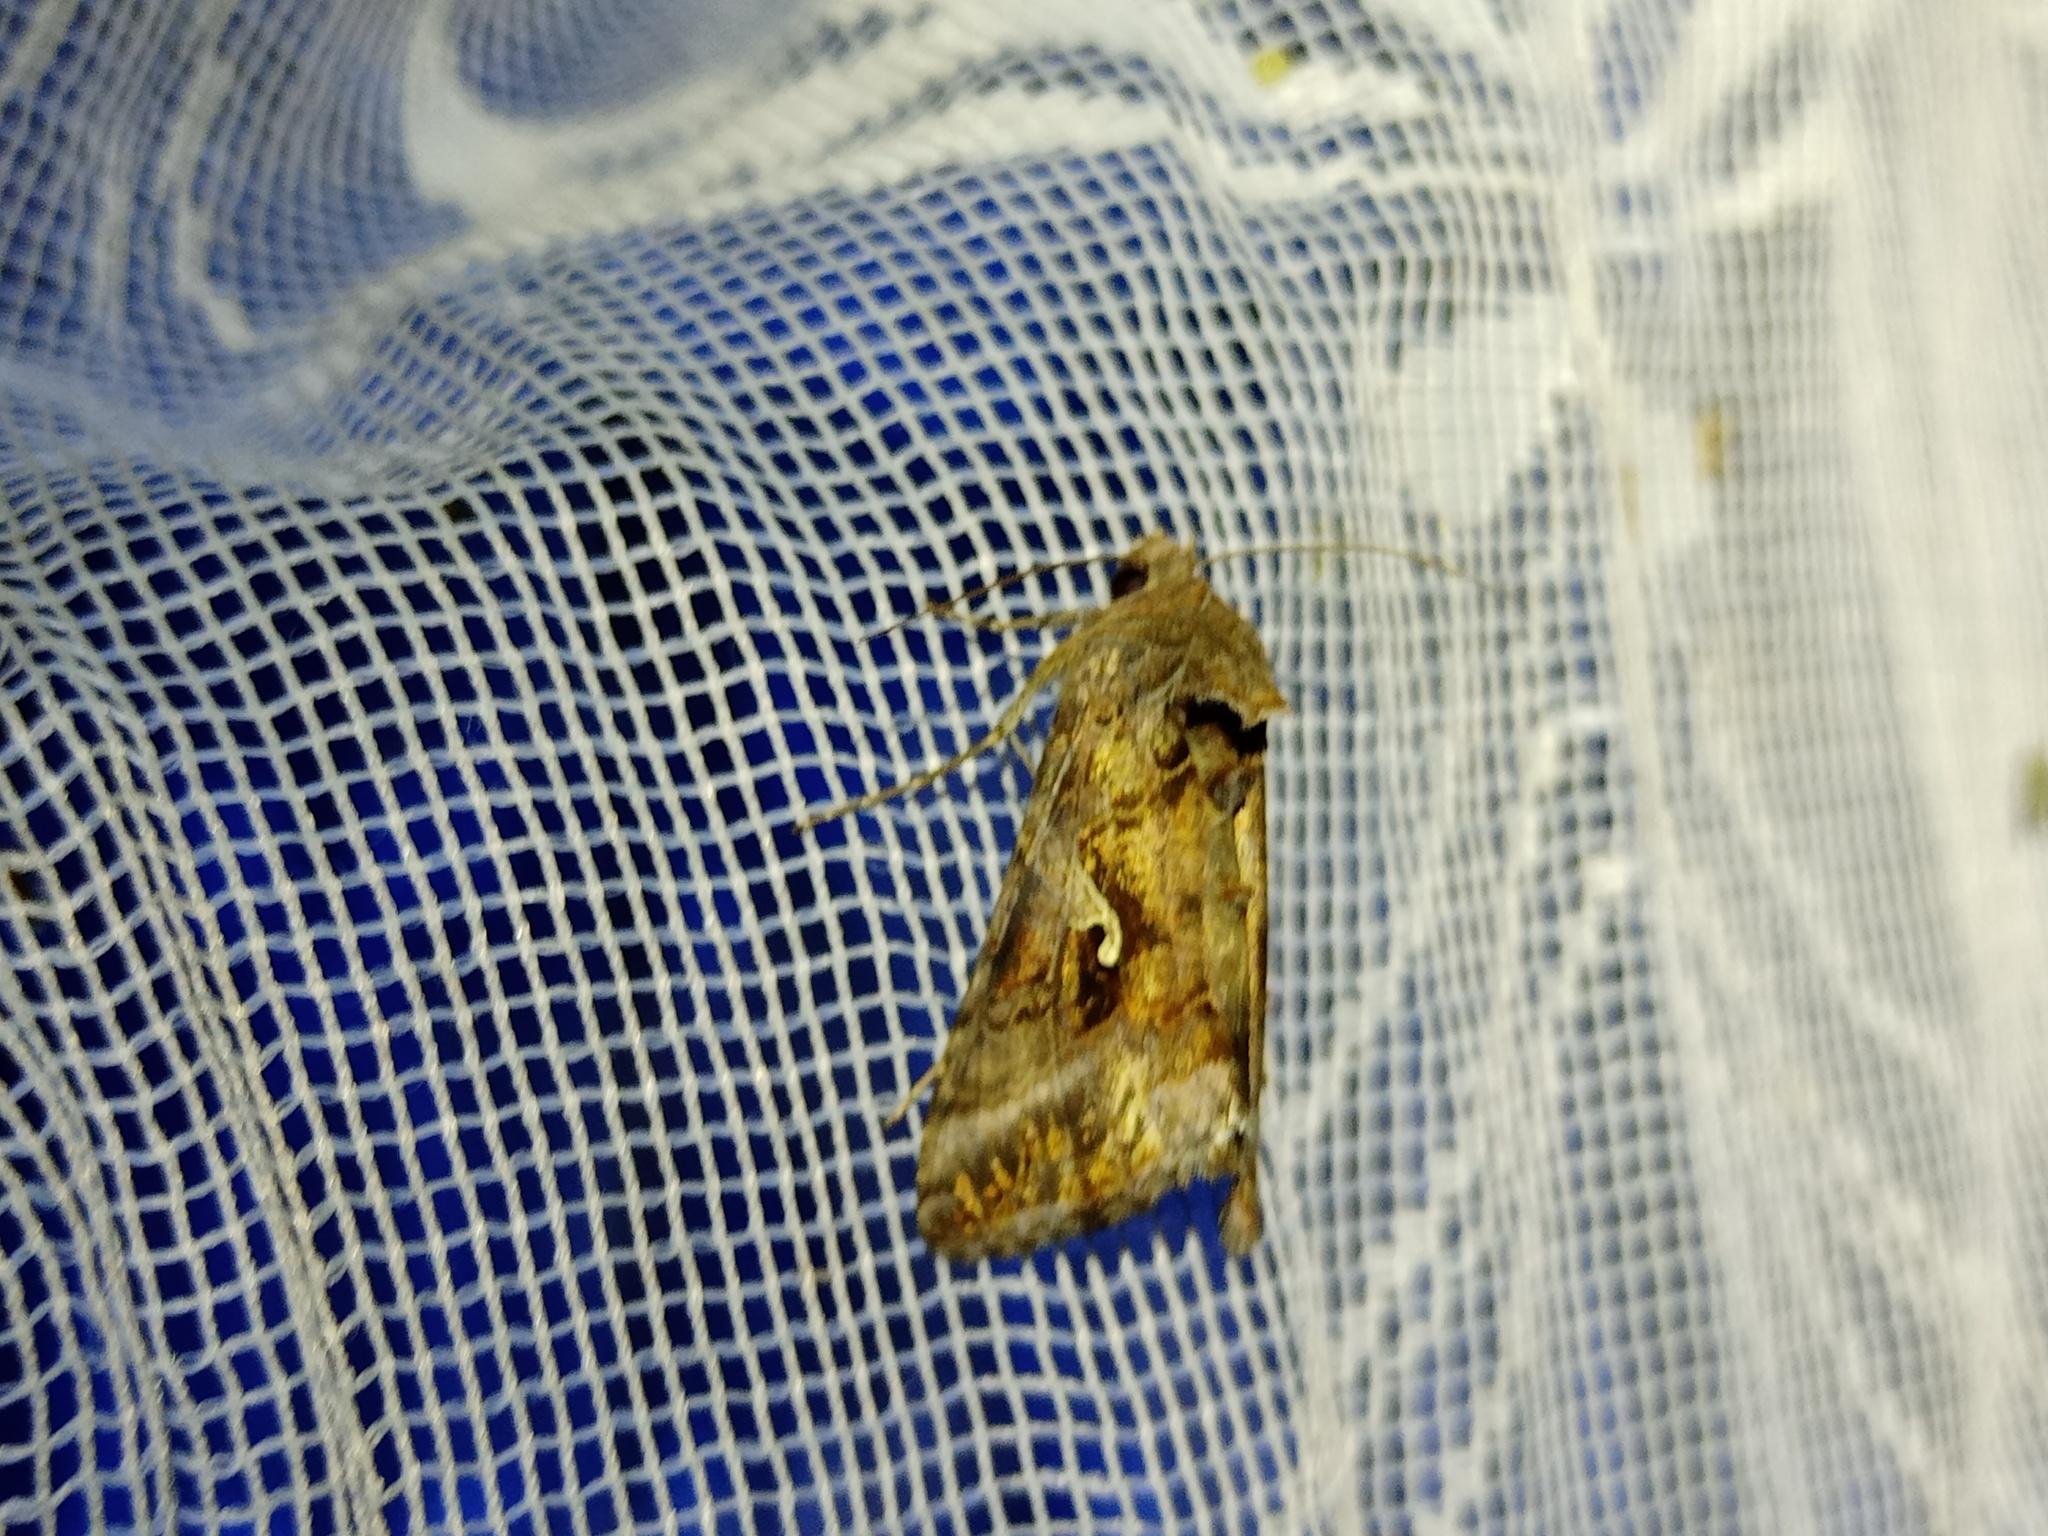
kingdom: Animalia
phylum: Arthropoda
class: Insecta
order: Lepidoptera
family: Noctuidae
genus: Autographa
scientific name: Autographa gamma
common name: Silver y
